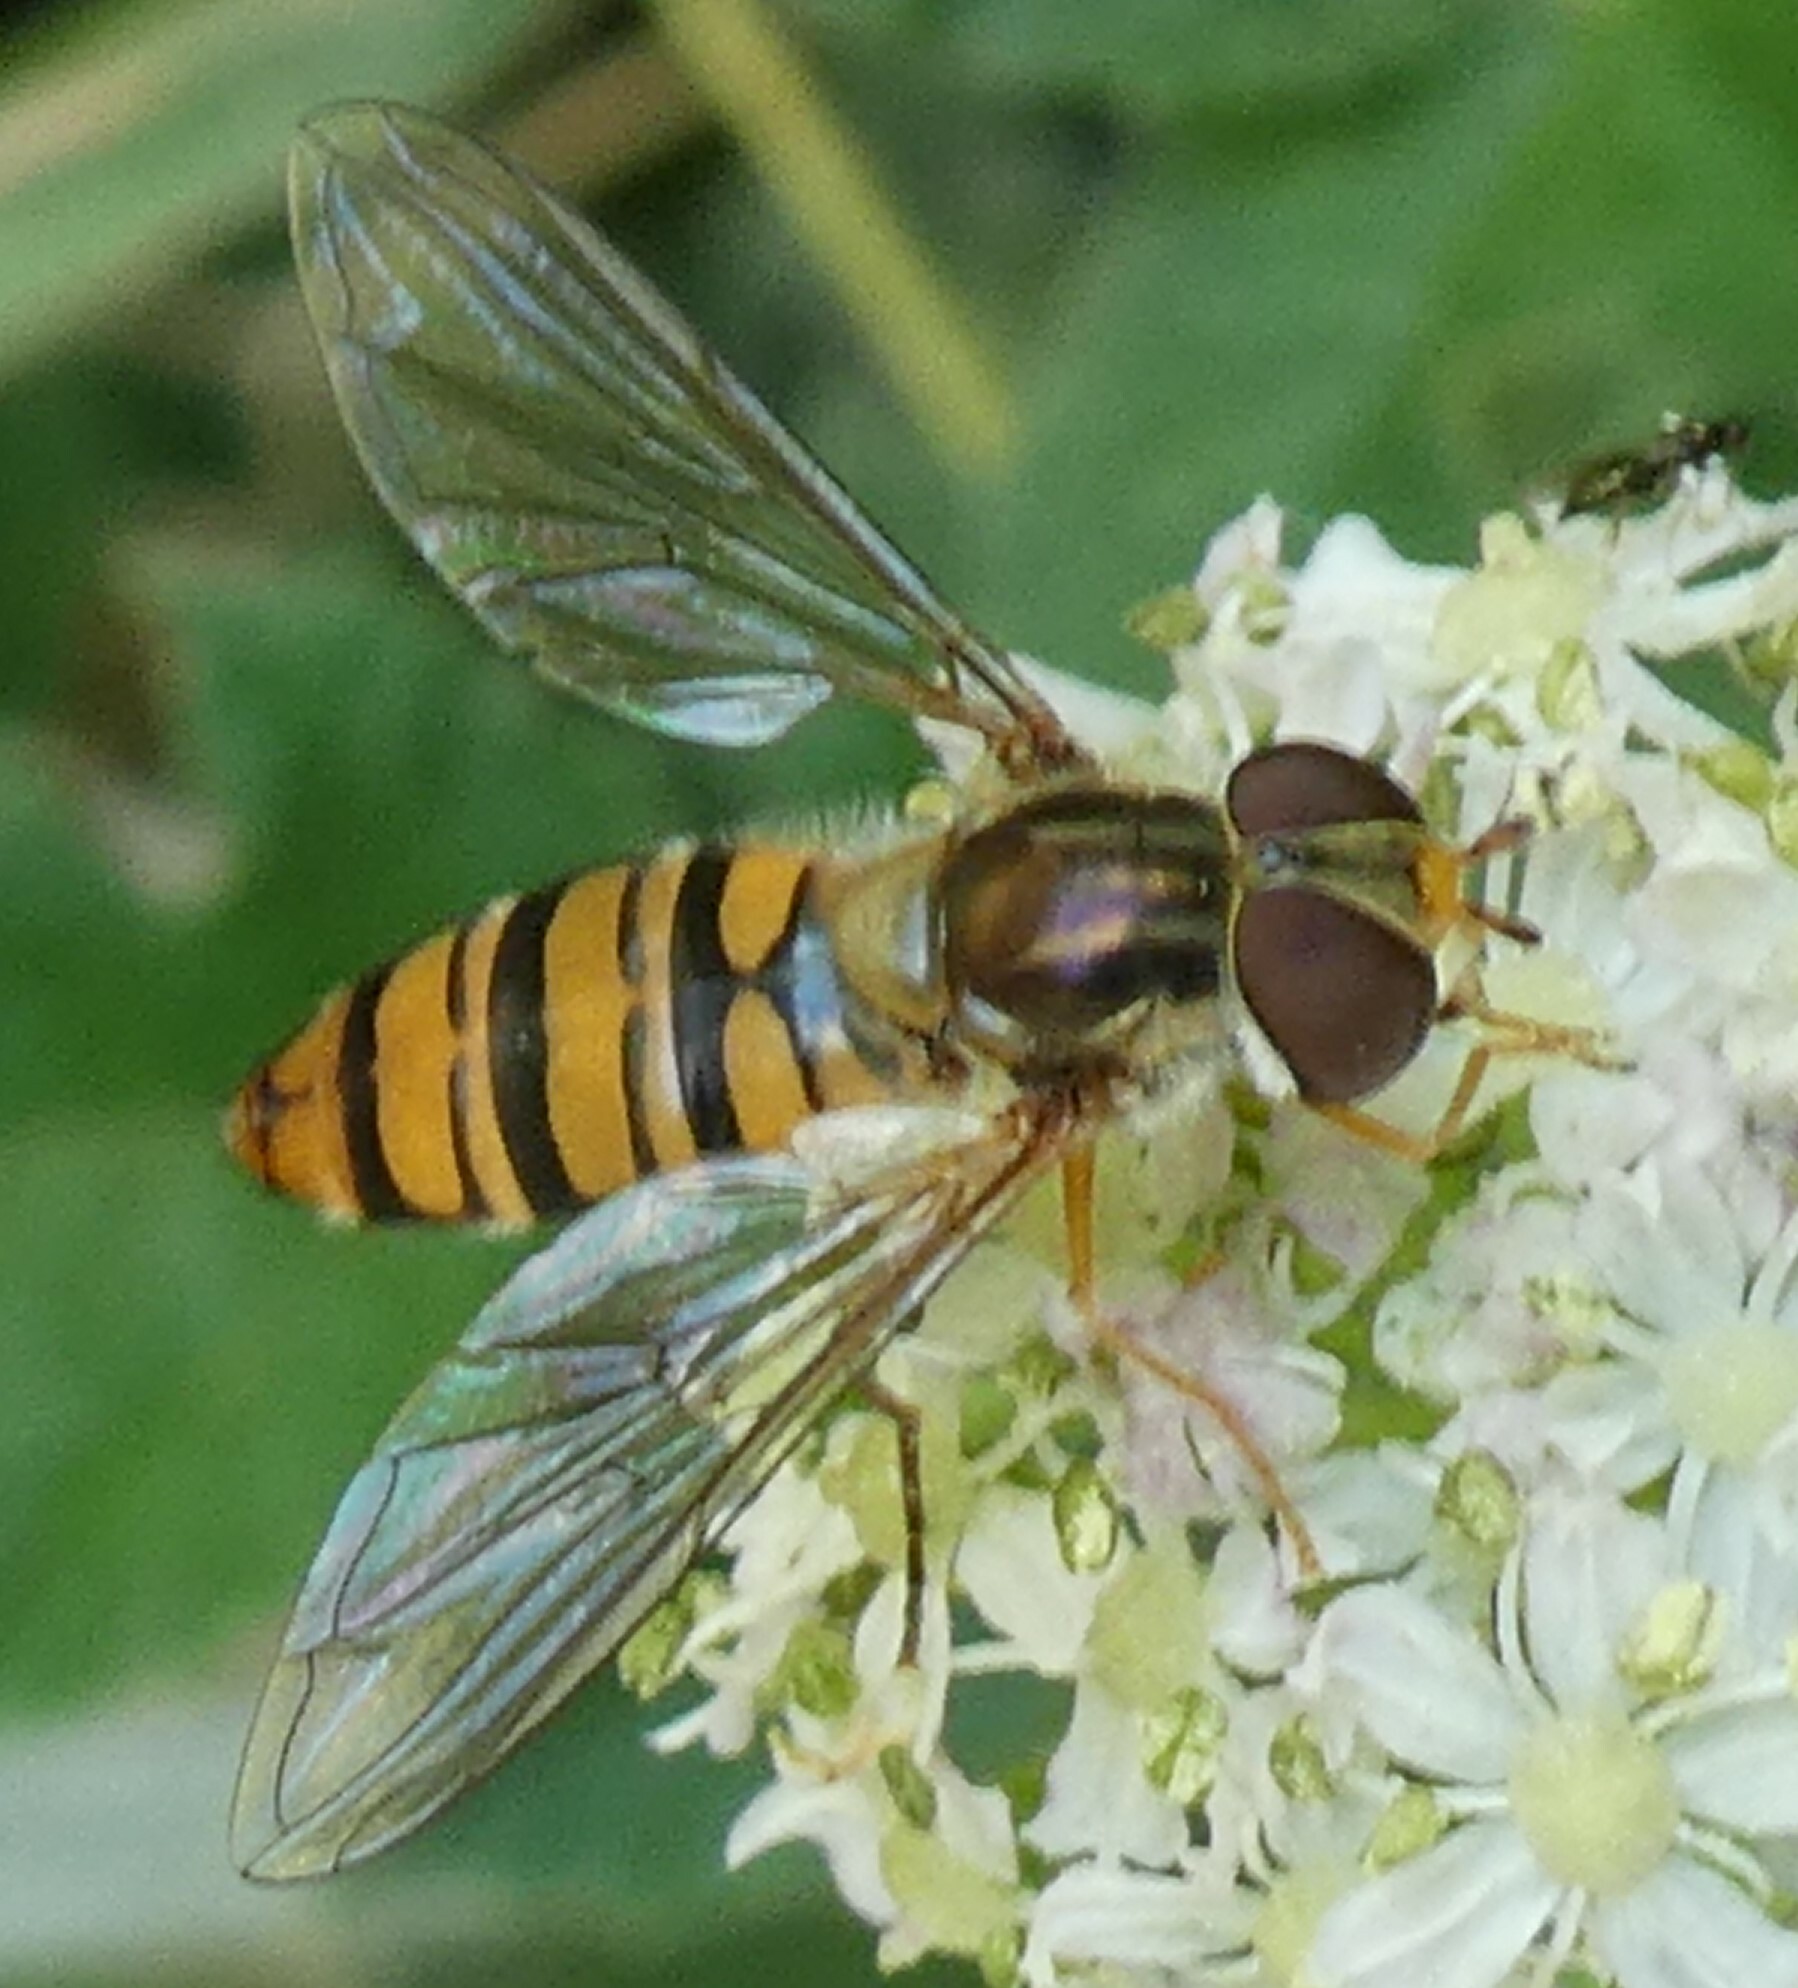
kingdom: Animalia
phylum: Arthropoda
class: Insecta
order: Diptera
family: Syrphidae
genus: Episyrphus
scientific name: Episyrphus balteatus
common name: Marmalade hoverfly
